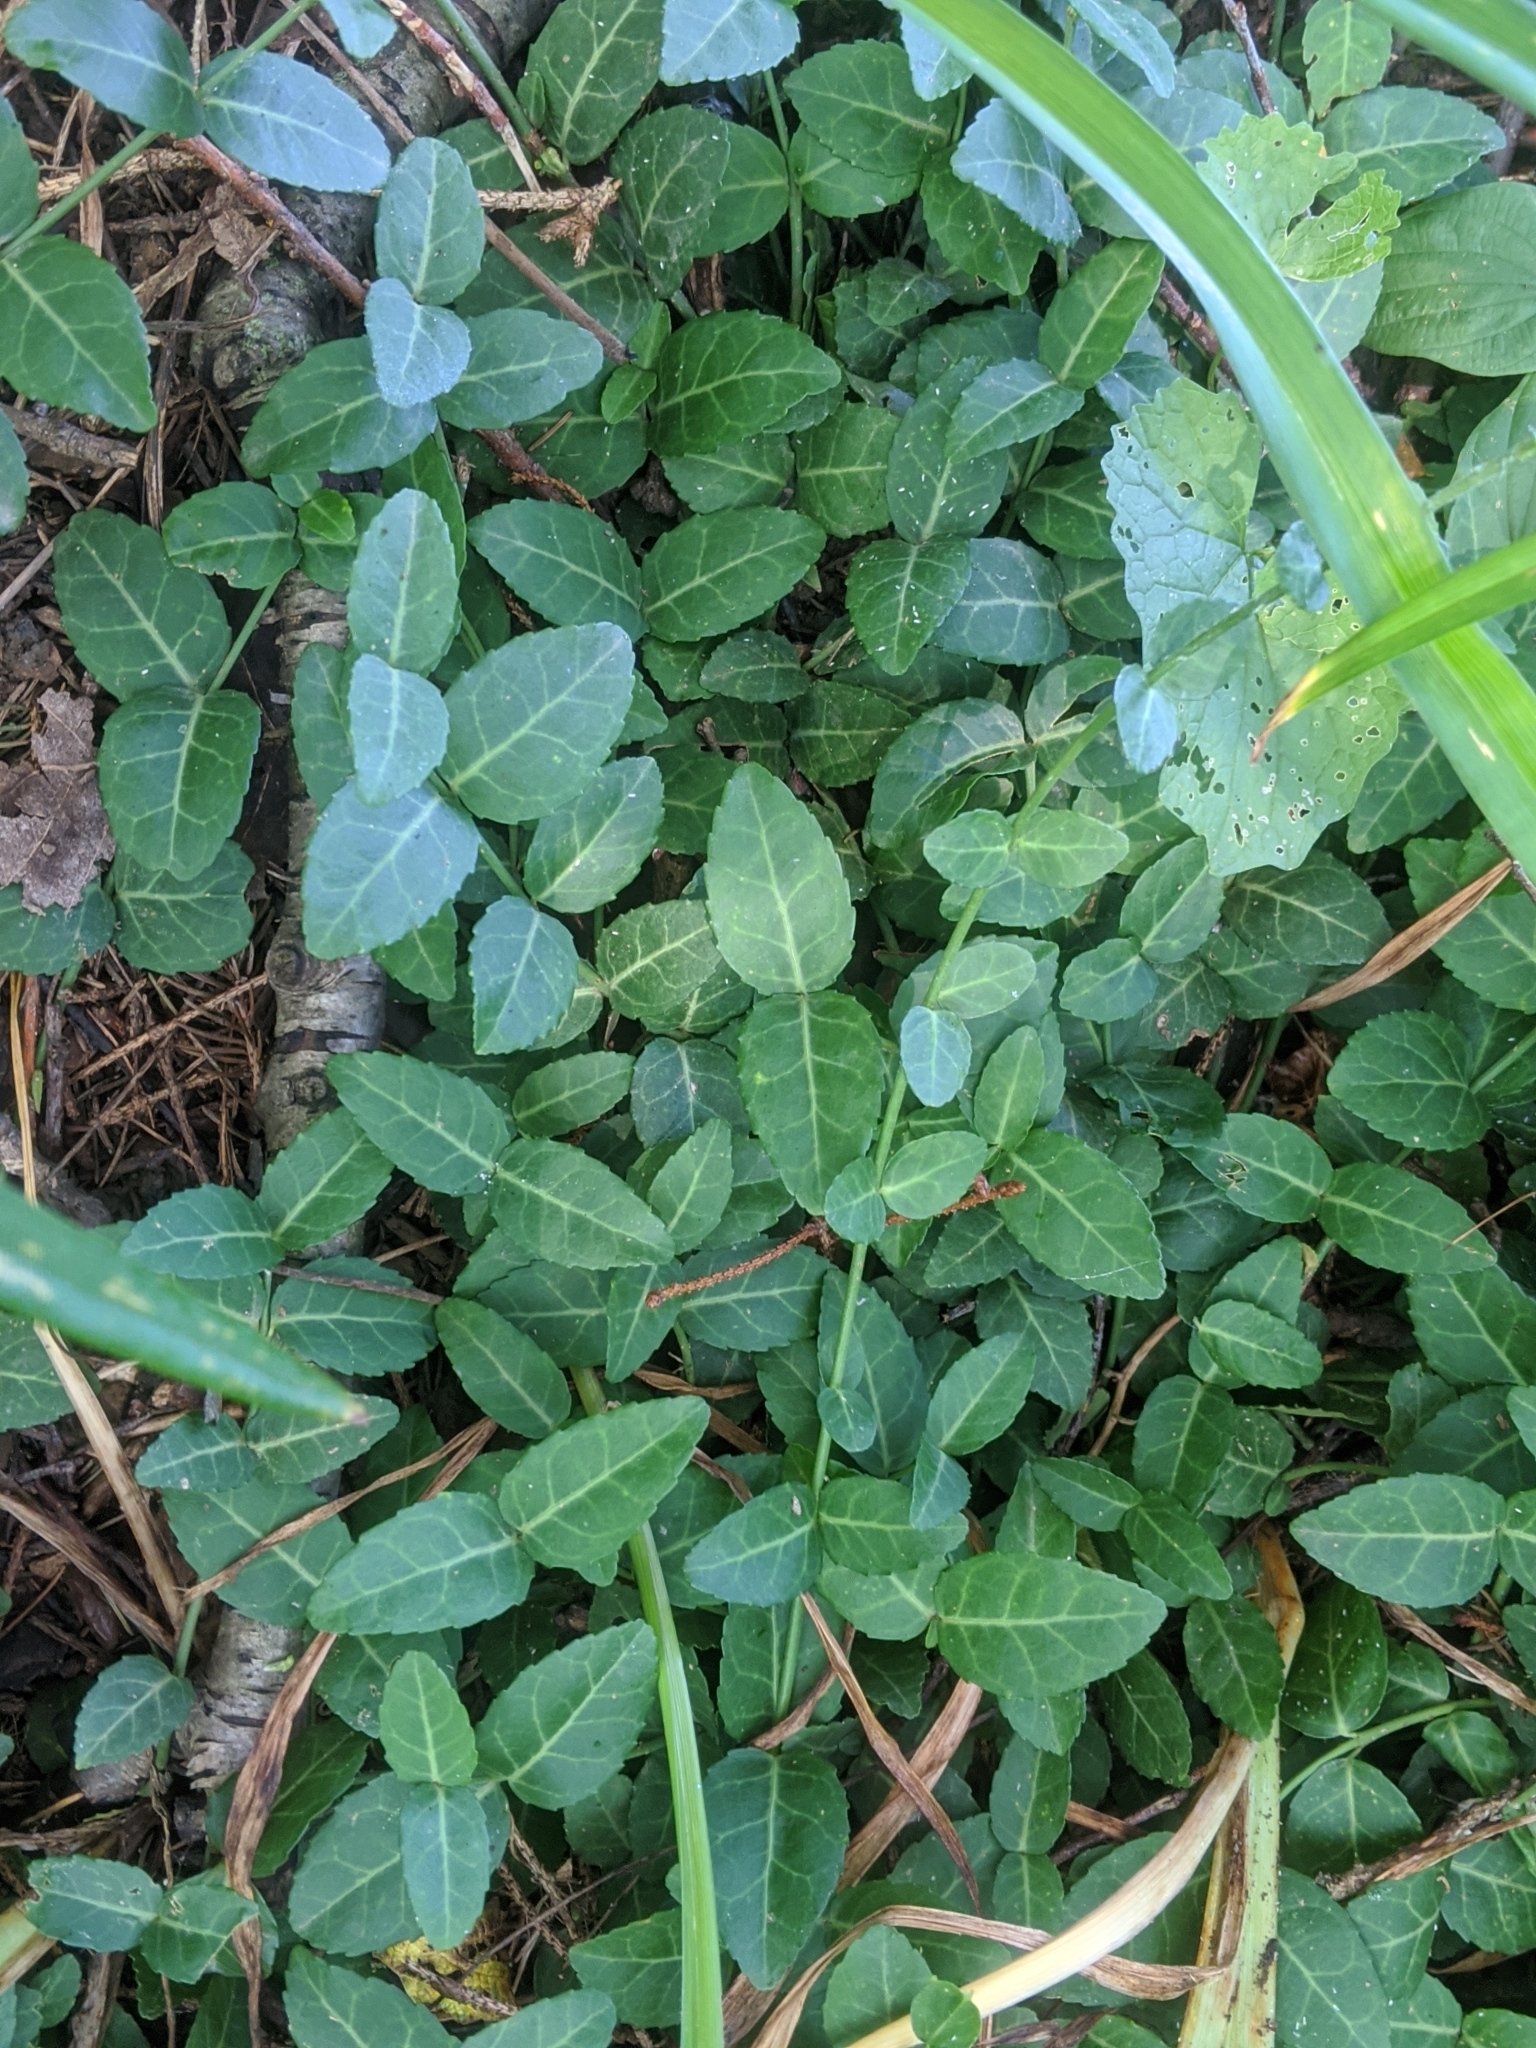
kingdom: Plantae
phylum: Tracheophyta
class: Magnoliopsida
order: Celastrales
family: Celastraceae
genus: Euonymus
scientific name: Euonymus fortunei
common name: Climbing euonymus
